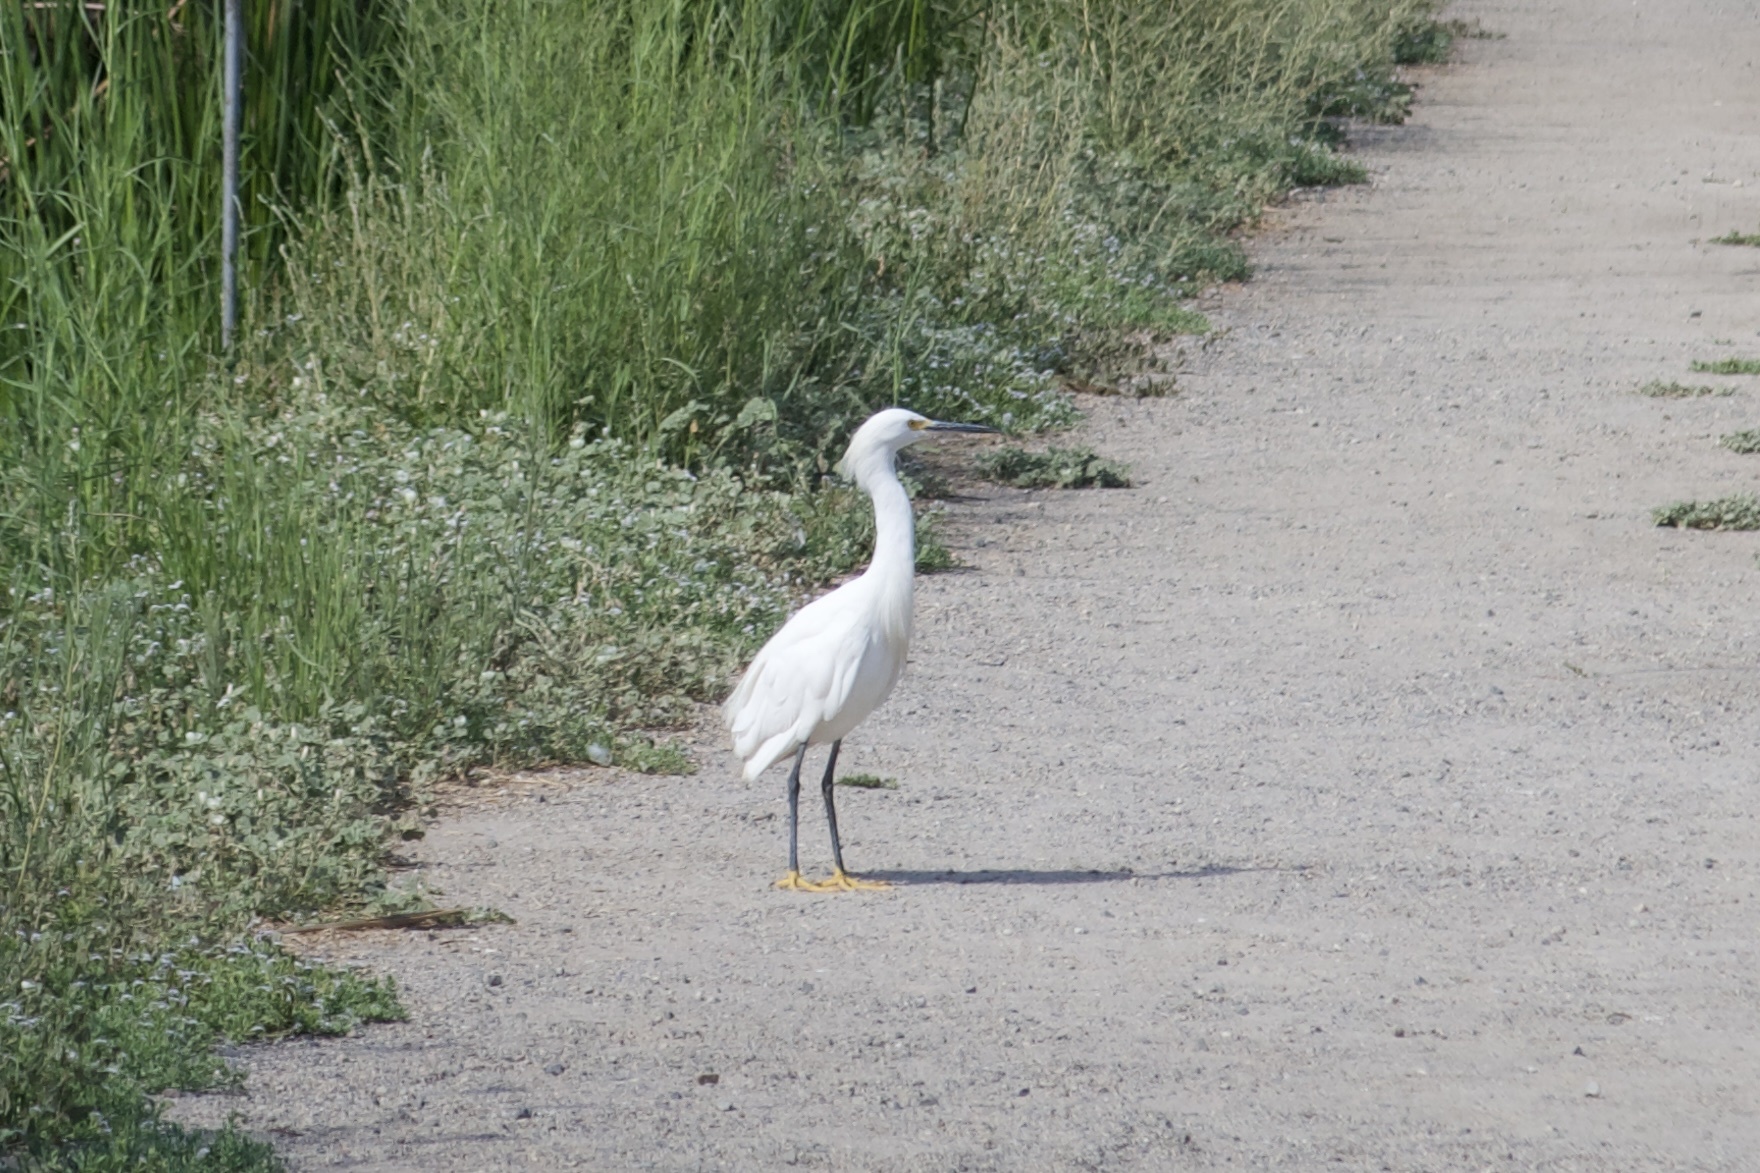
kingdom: Animalia
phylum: Chordata
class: Aves
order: Pelecaniformes
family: Ardeidae
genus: Egretta
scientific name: Egretta thula
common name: Snowy egret
